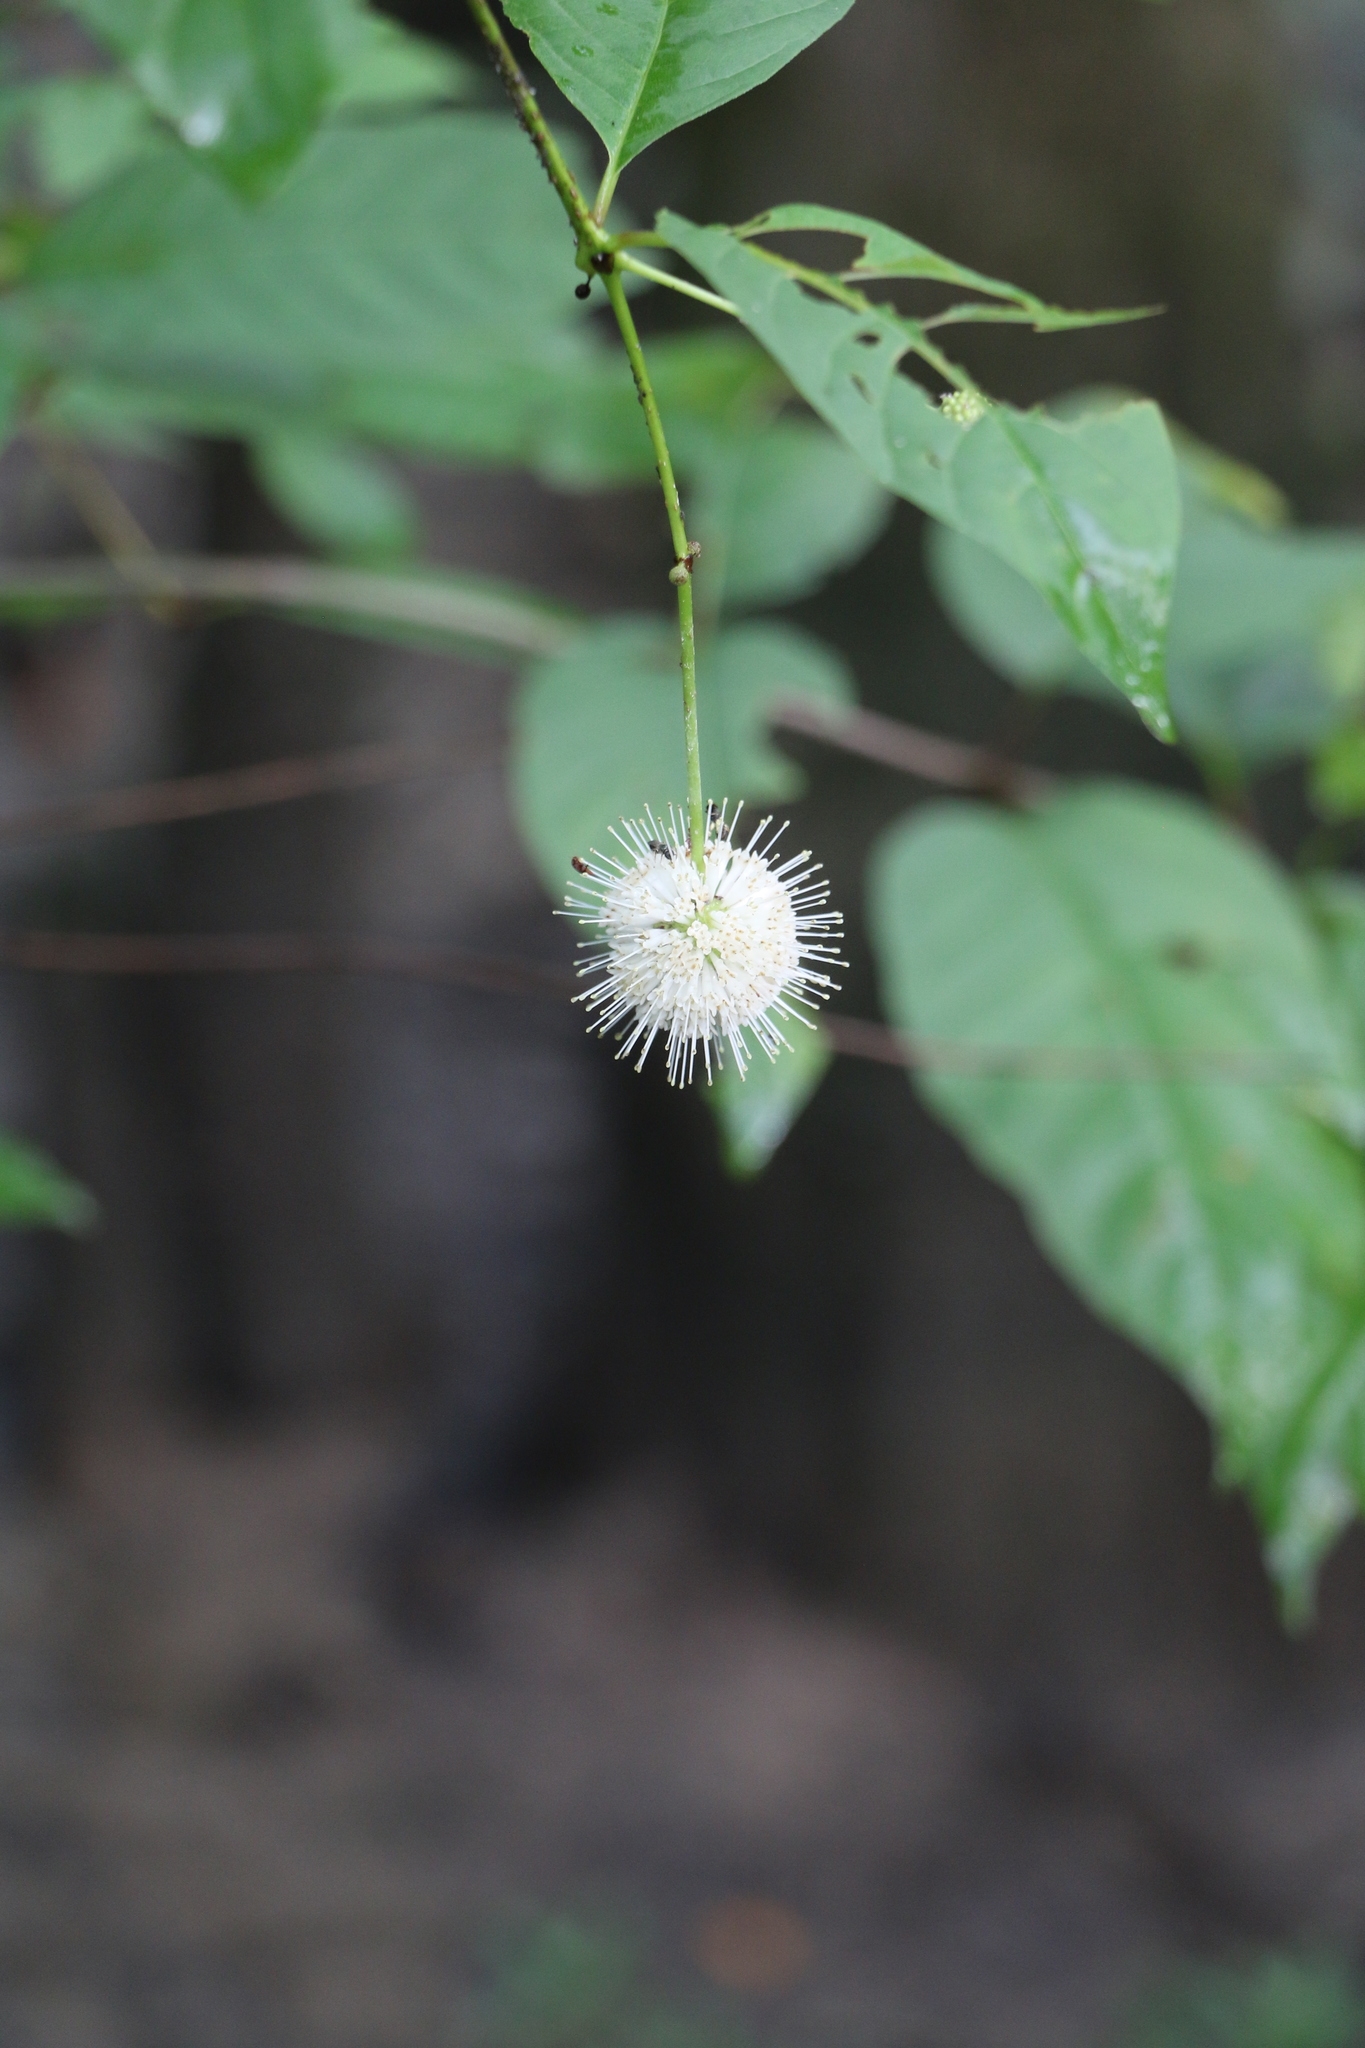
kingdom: Plantae
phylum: Tracheophyta
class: Magnoliopsida
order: Gentianales
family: Rubiaceae
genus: Cephalanthus
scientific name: Cephalanthus occidentalis
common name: Button-willow
